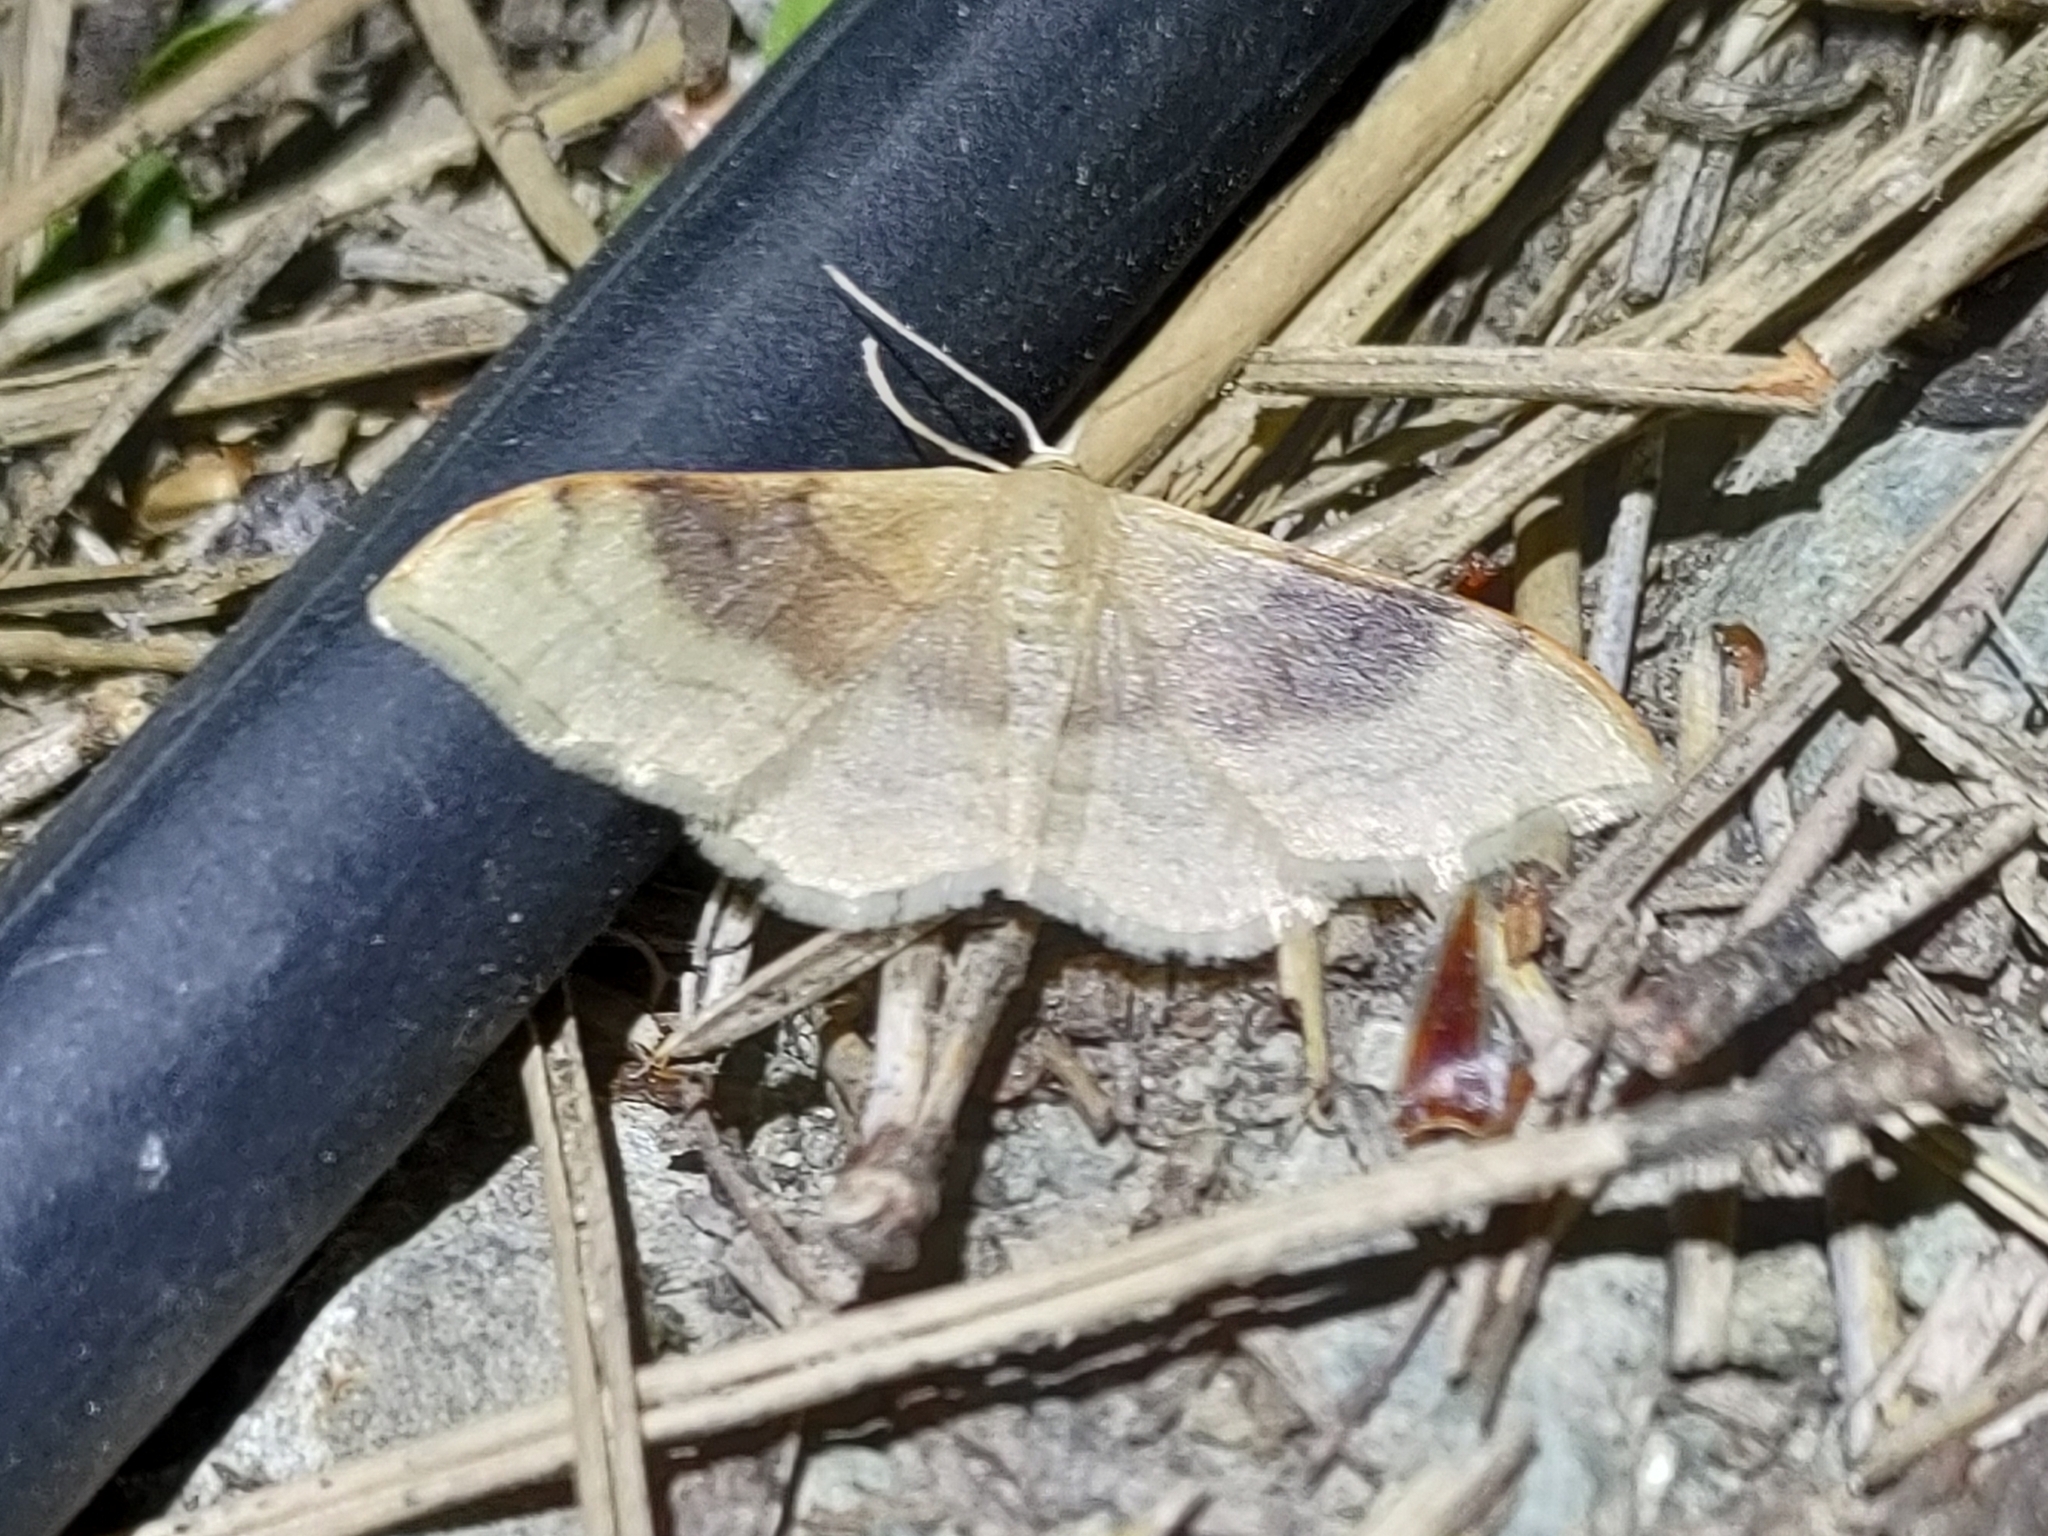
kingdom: Animalia
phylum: Arthropoda
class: Insecta
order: Lepidoptera
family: Geometridae
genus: Idaea
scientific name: Idaea degeneraria
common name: Portland ribbon wave
